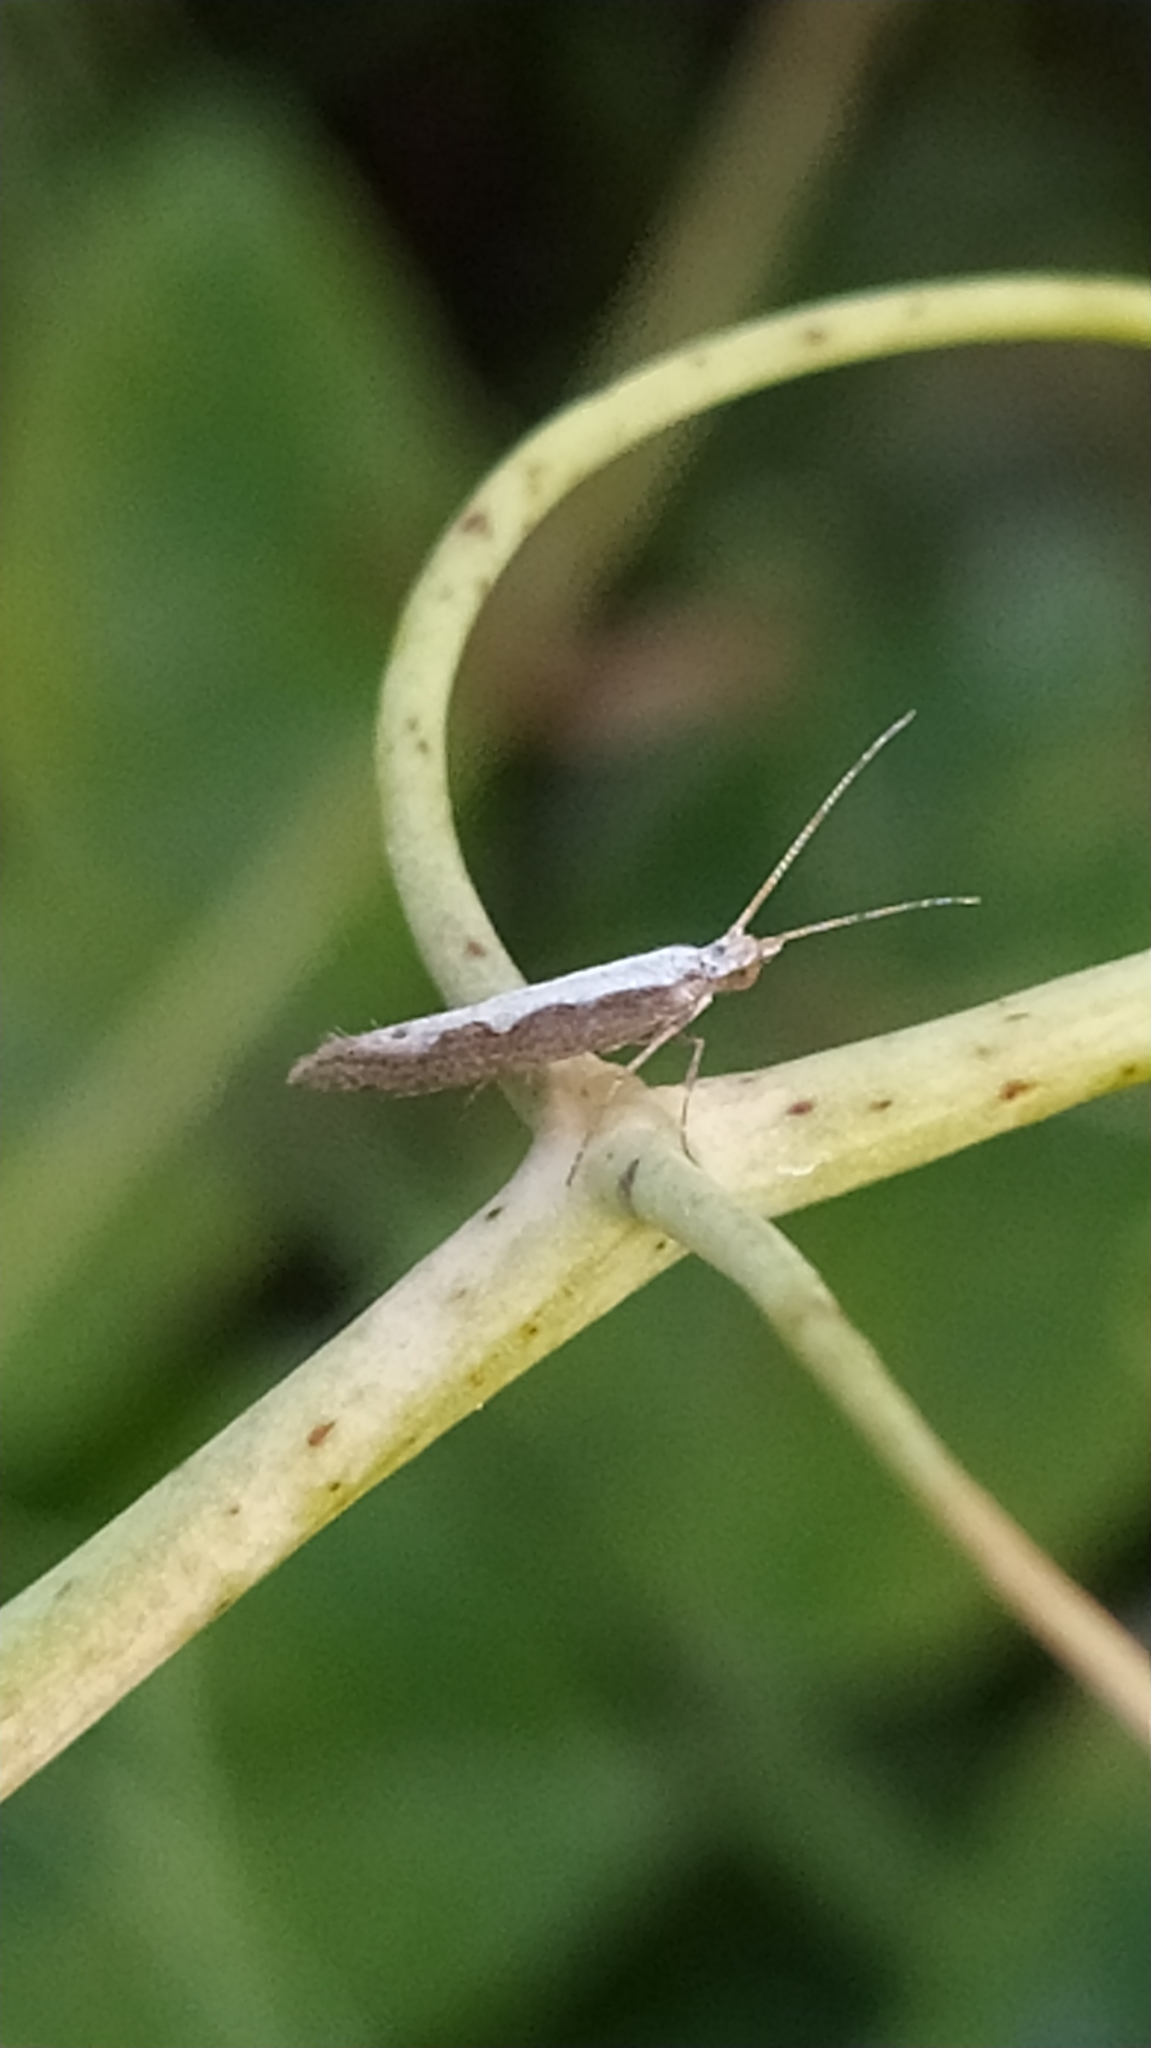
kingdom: Animalia
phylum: Arthropoda
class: Insecta
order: Lepidoptera
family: Plutellidae
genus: Plutella
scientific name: Plutella xylostella
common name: Diamond-back moth
